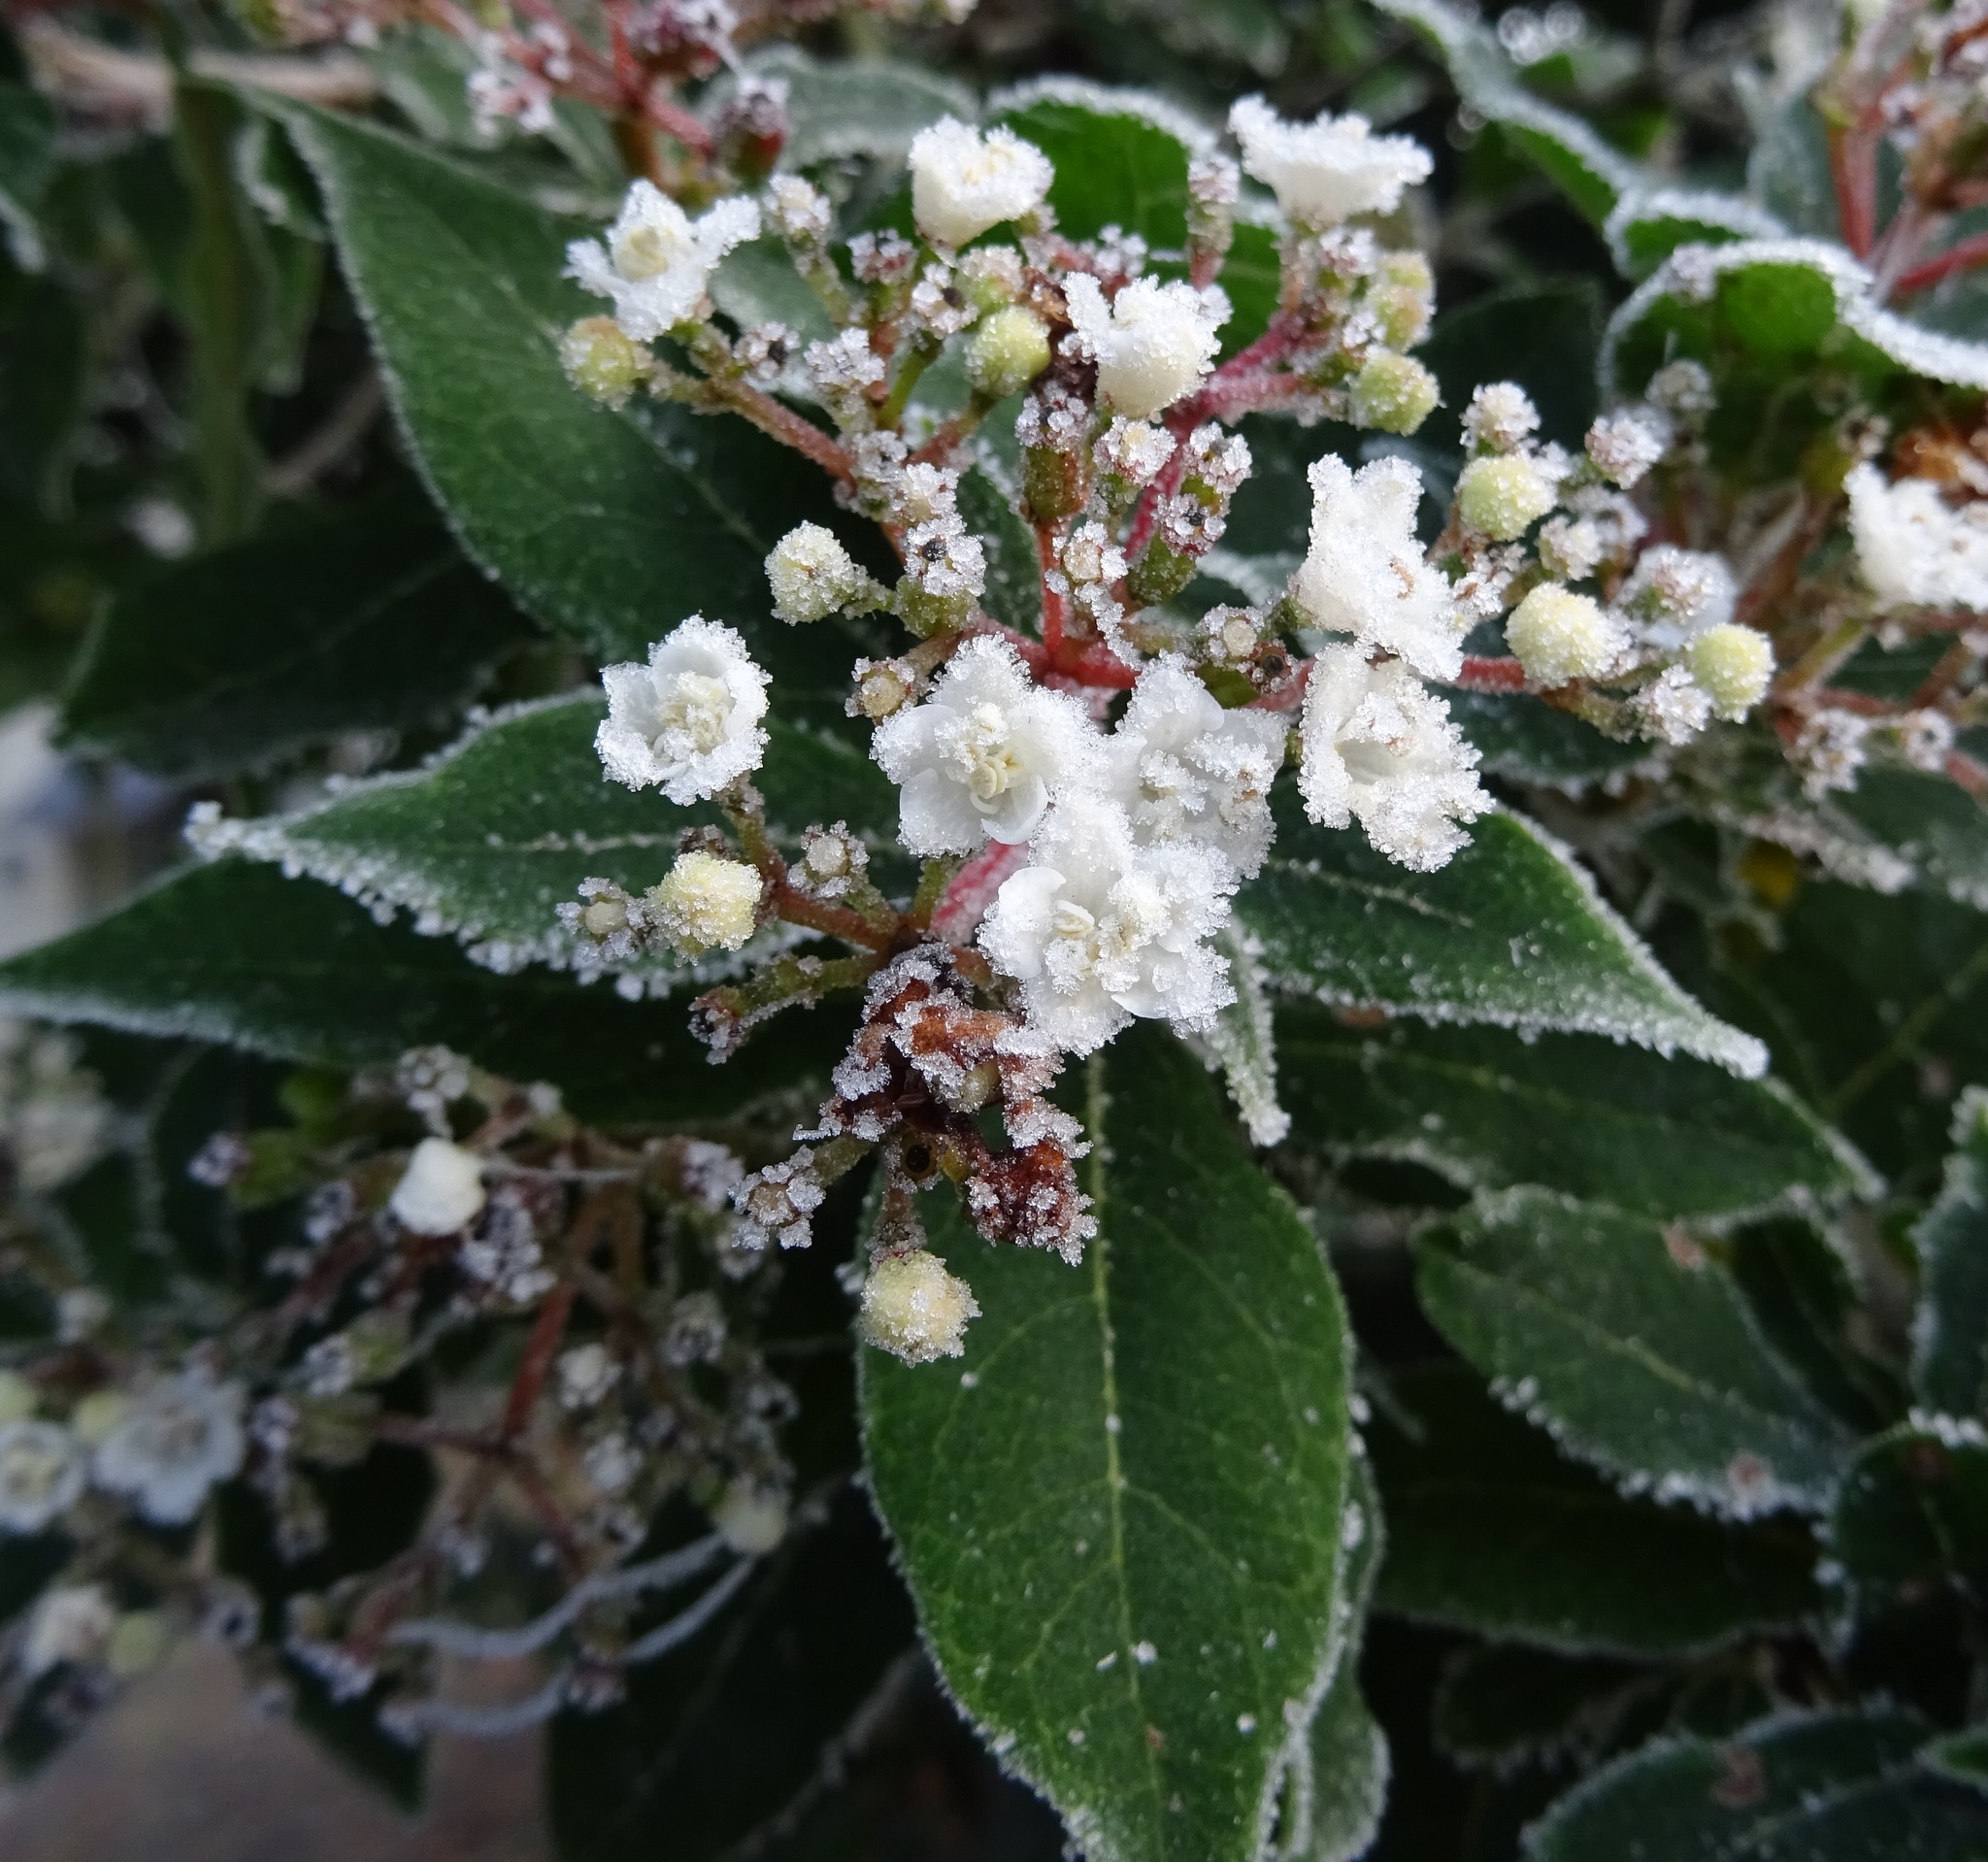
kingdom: Plantae
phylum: Tracheophyta
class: Magnoliopsida
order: Dipsacales
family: Viburnaceae
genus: Viburnum
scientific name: Viburnum tinus
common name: Laurustinus
